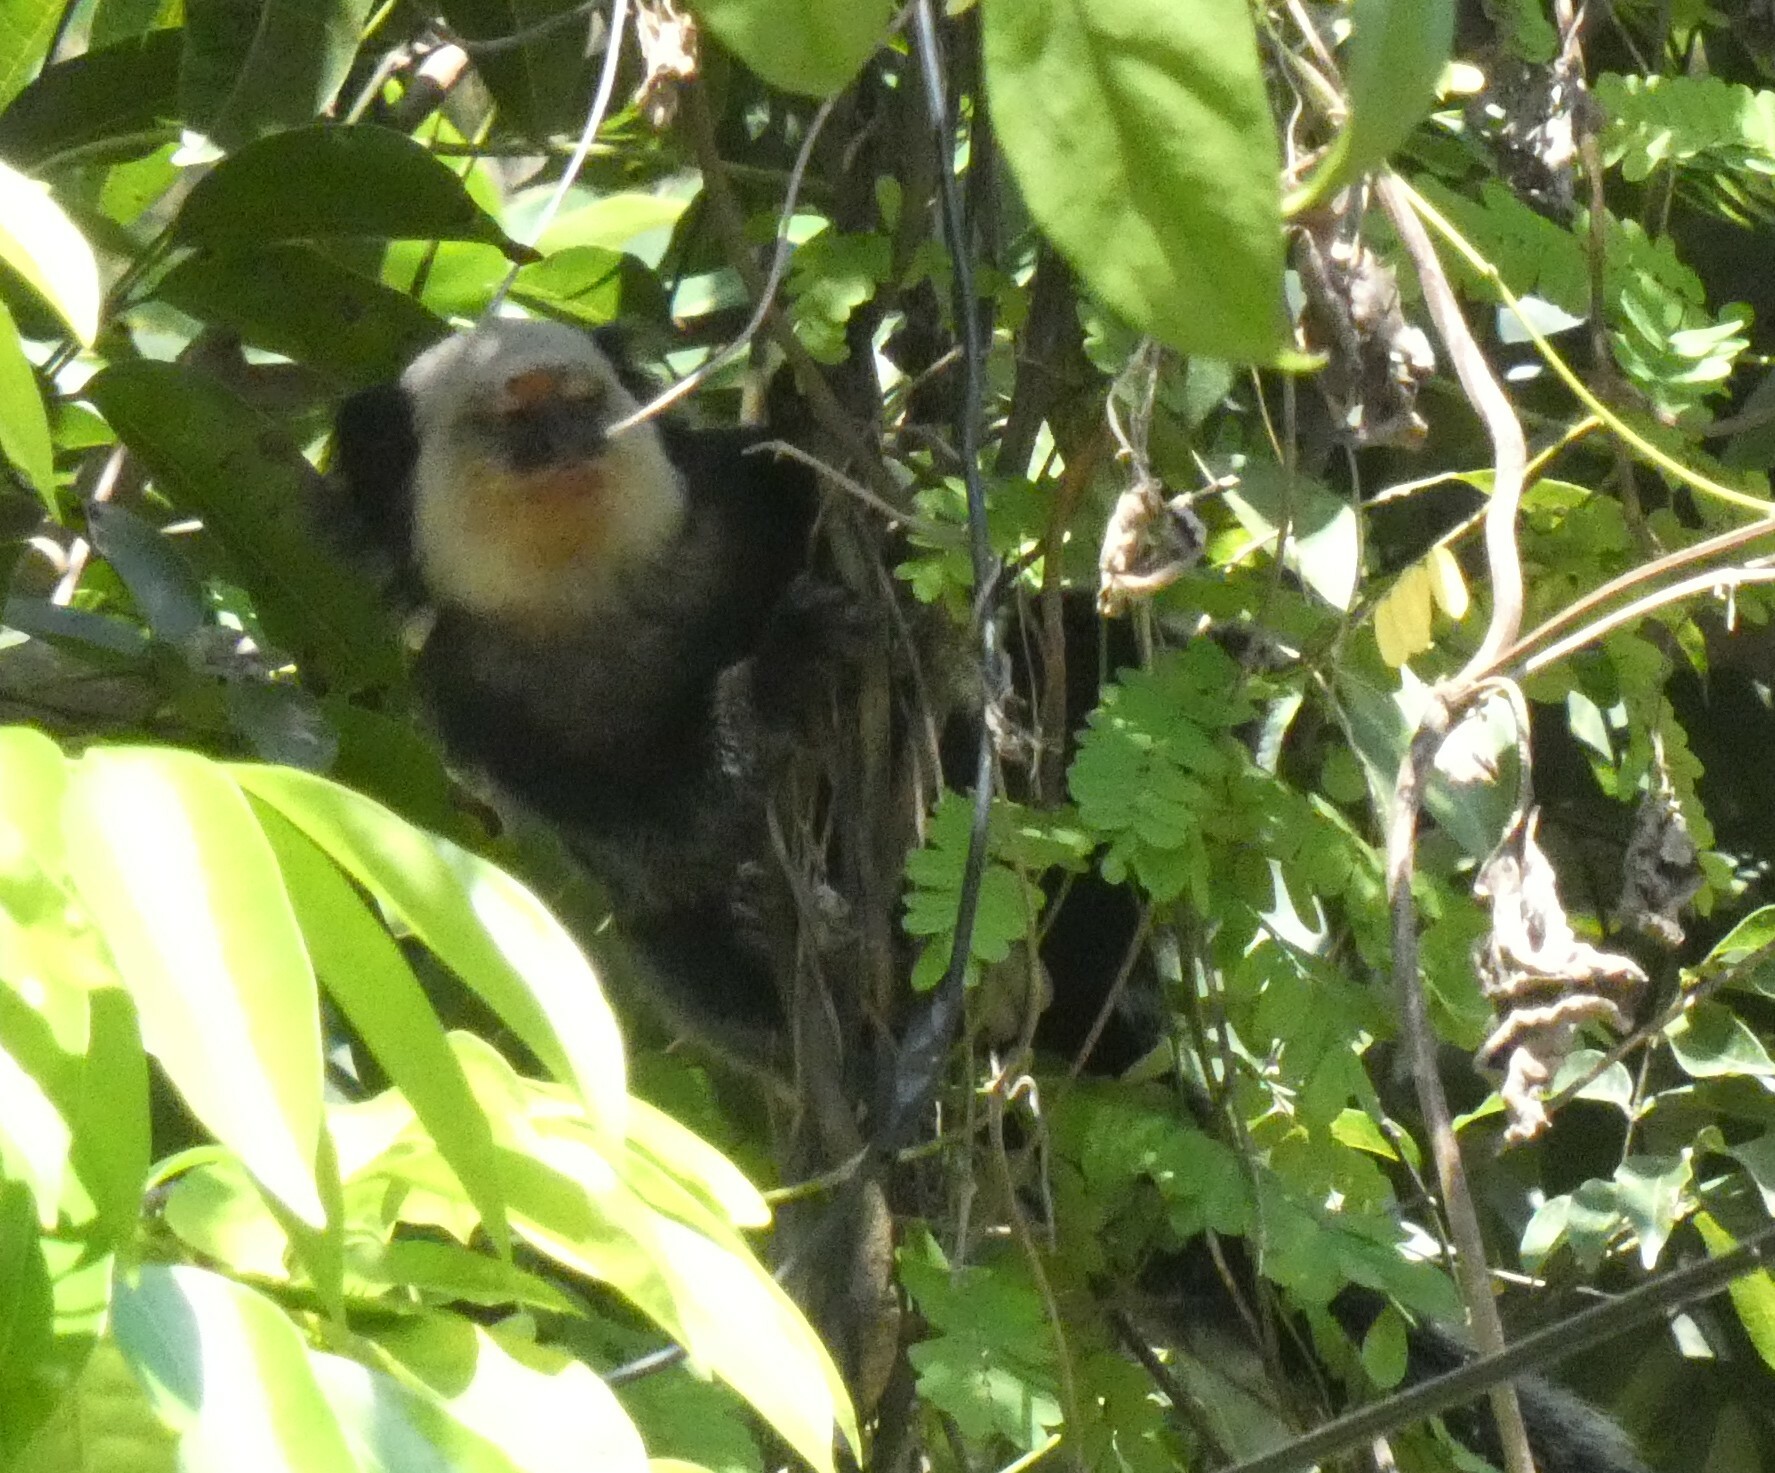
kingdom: Animalia
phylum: Chordata
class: Mammalia
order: Primates
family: Callitrichidae
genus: Callithrix
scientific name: Callithrix geoffroyi
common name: White-headed marmoset
